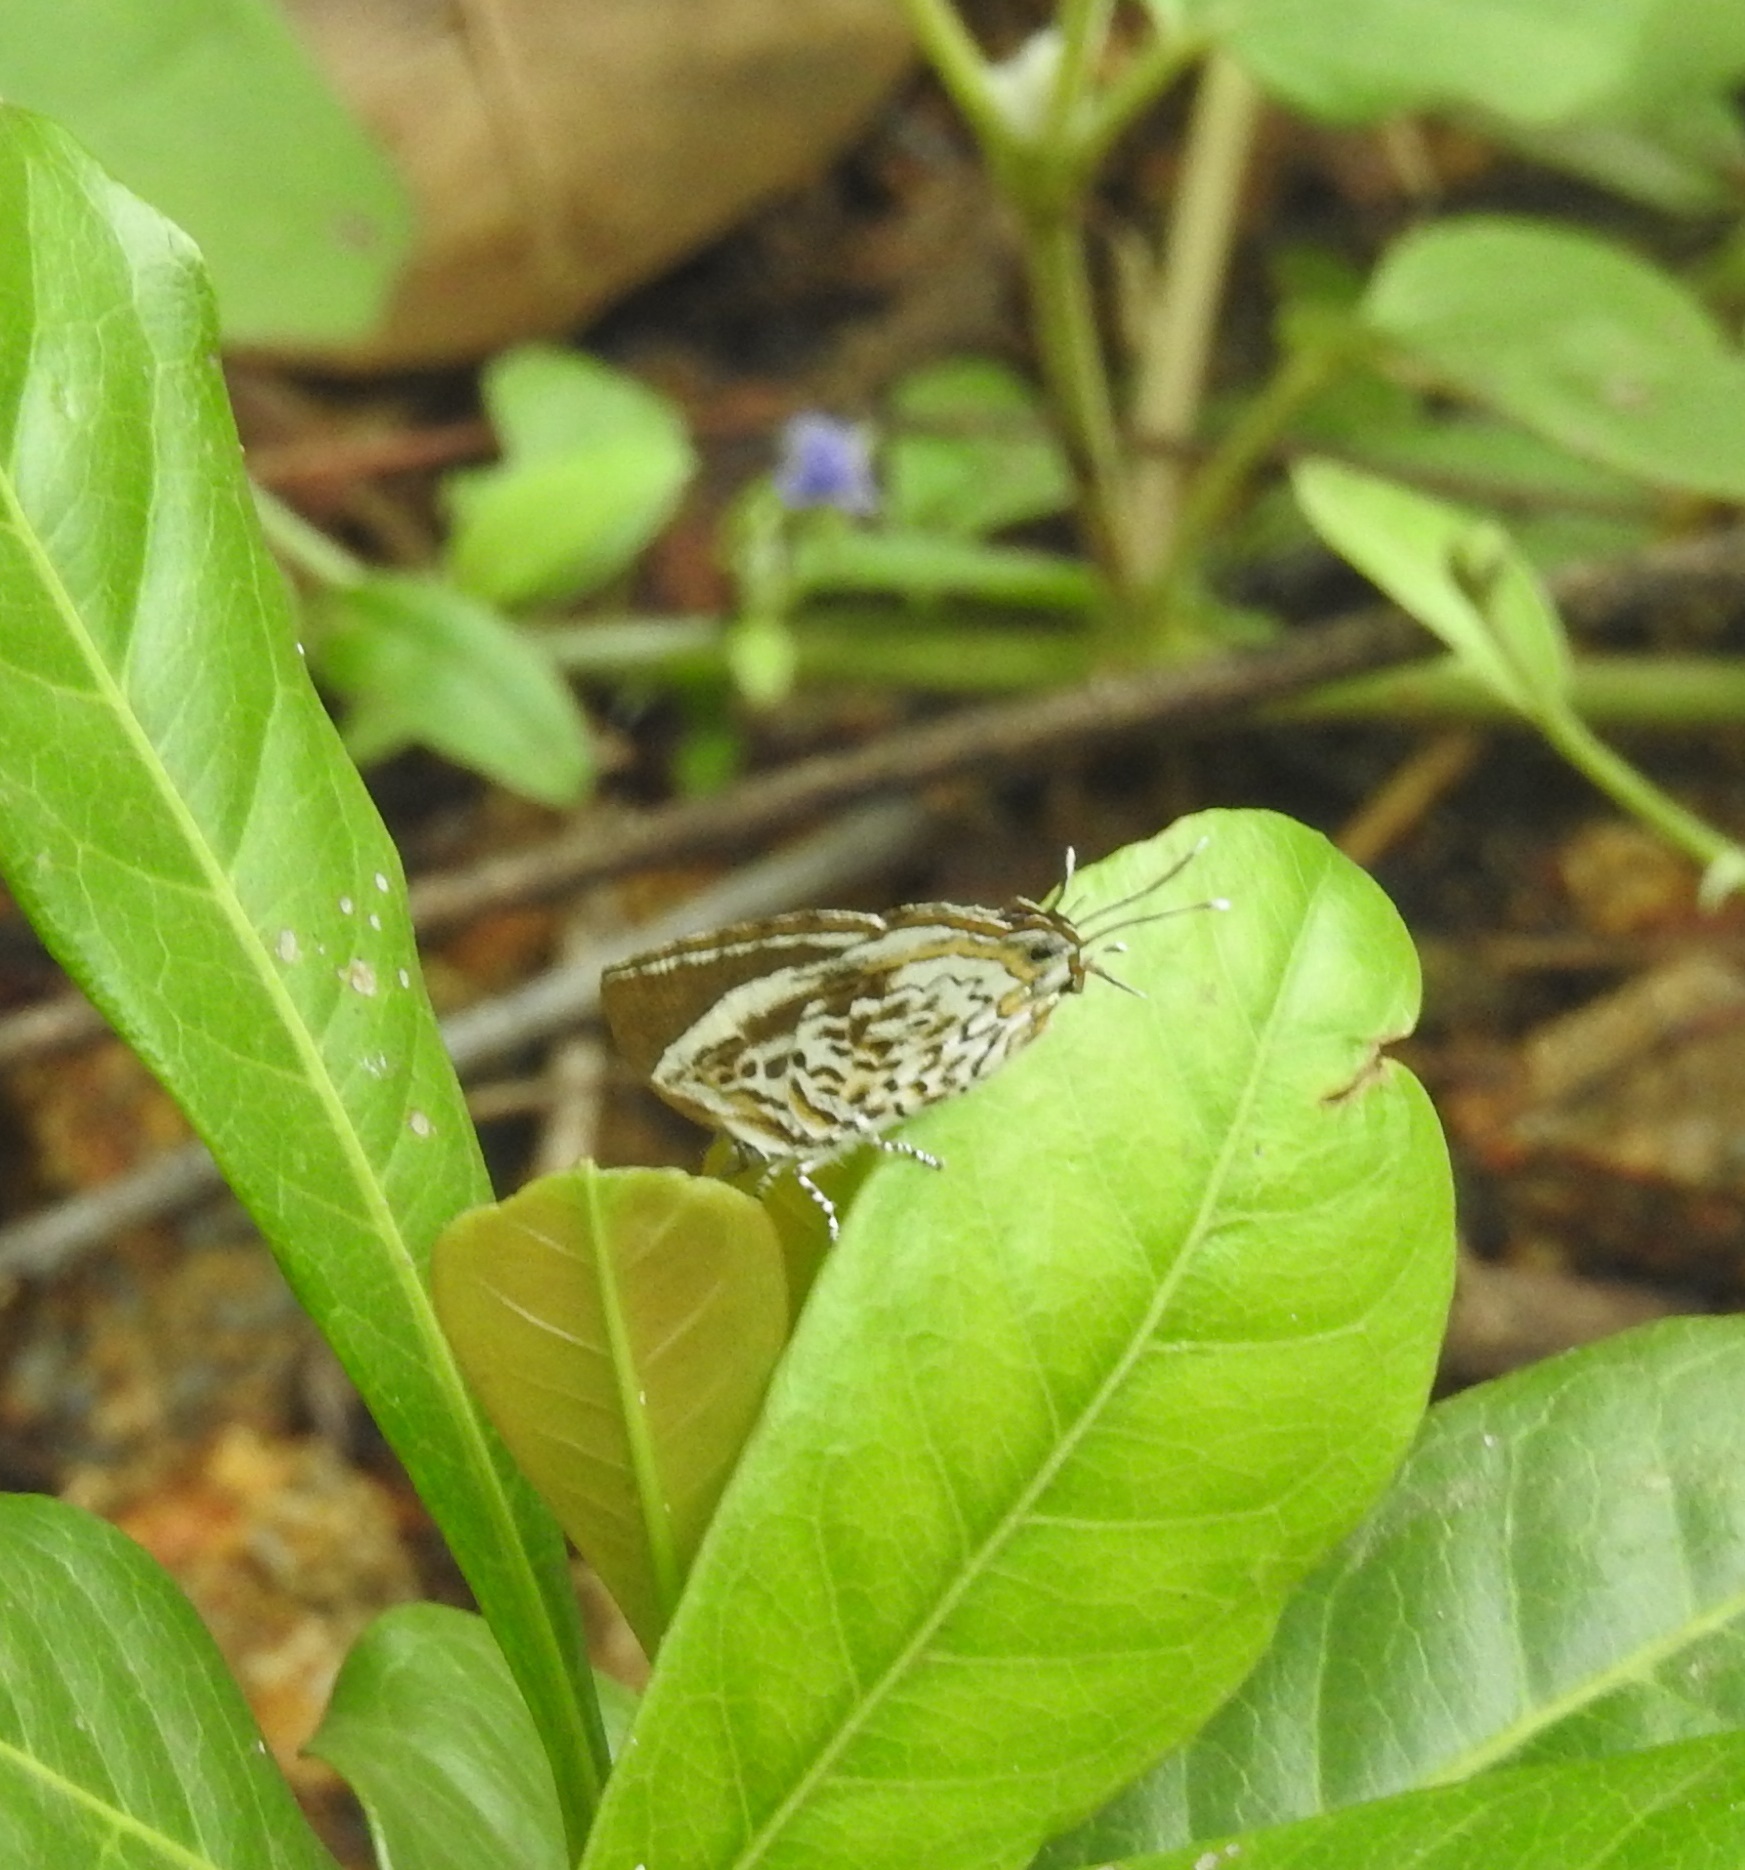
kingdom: Animalia
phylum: Arthropoda
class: Insecta
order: Lepidoptera
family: Lycaenidae
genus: Rathinda
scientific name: Rathinda amor
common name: Monkey puzzle
